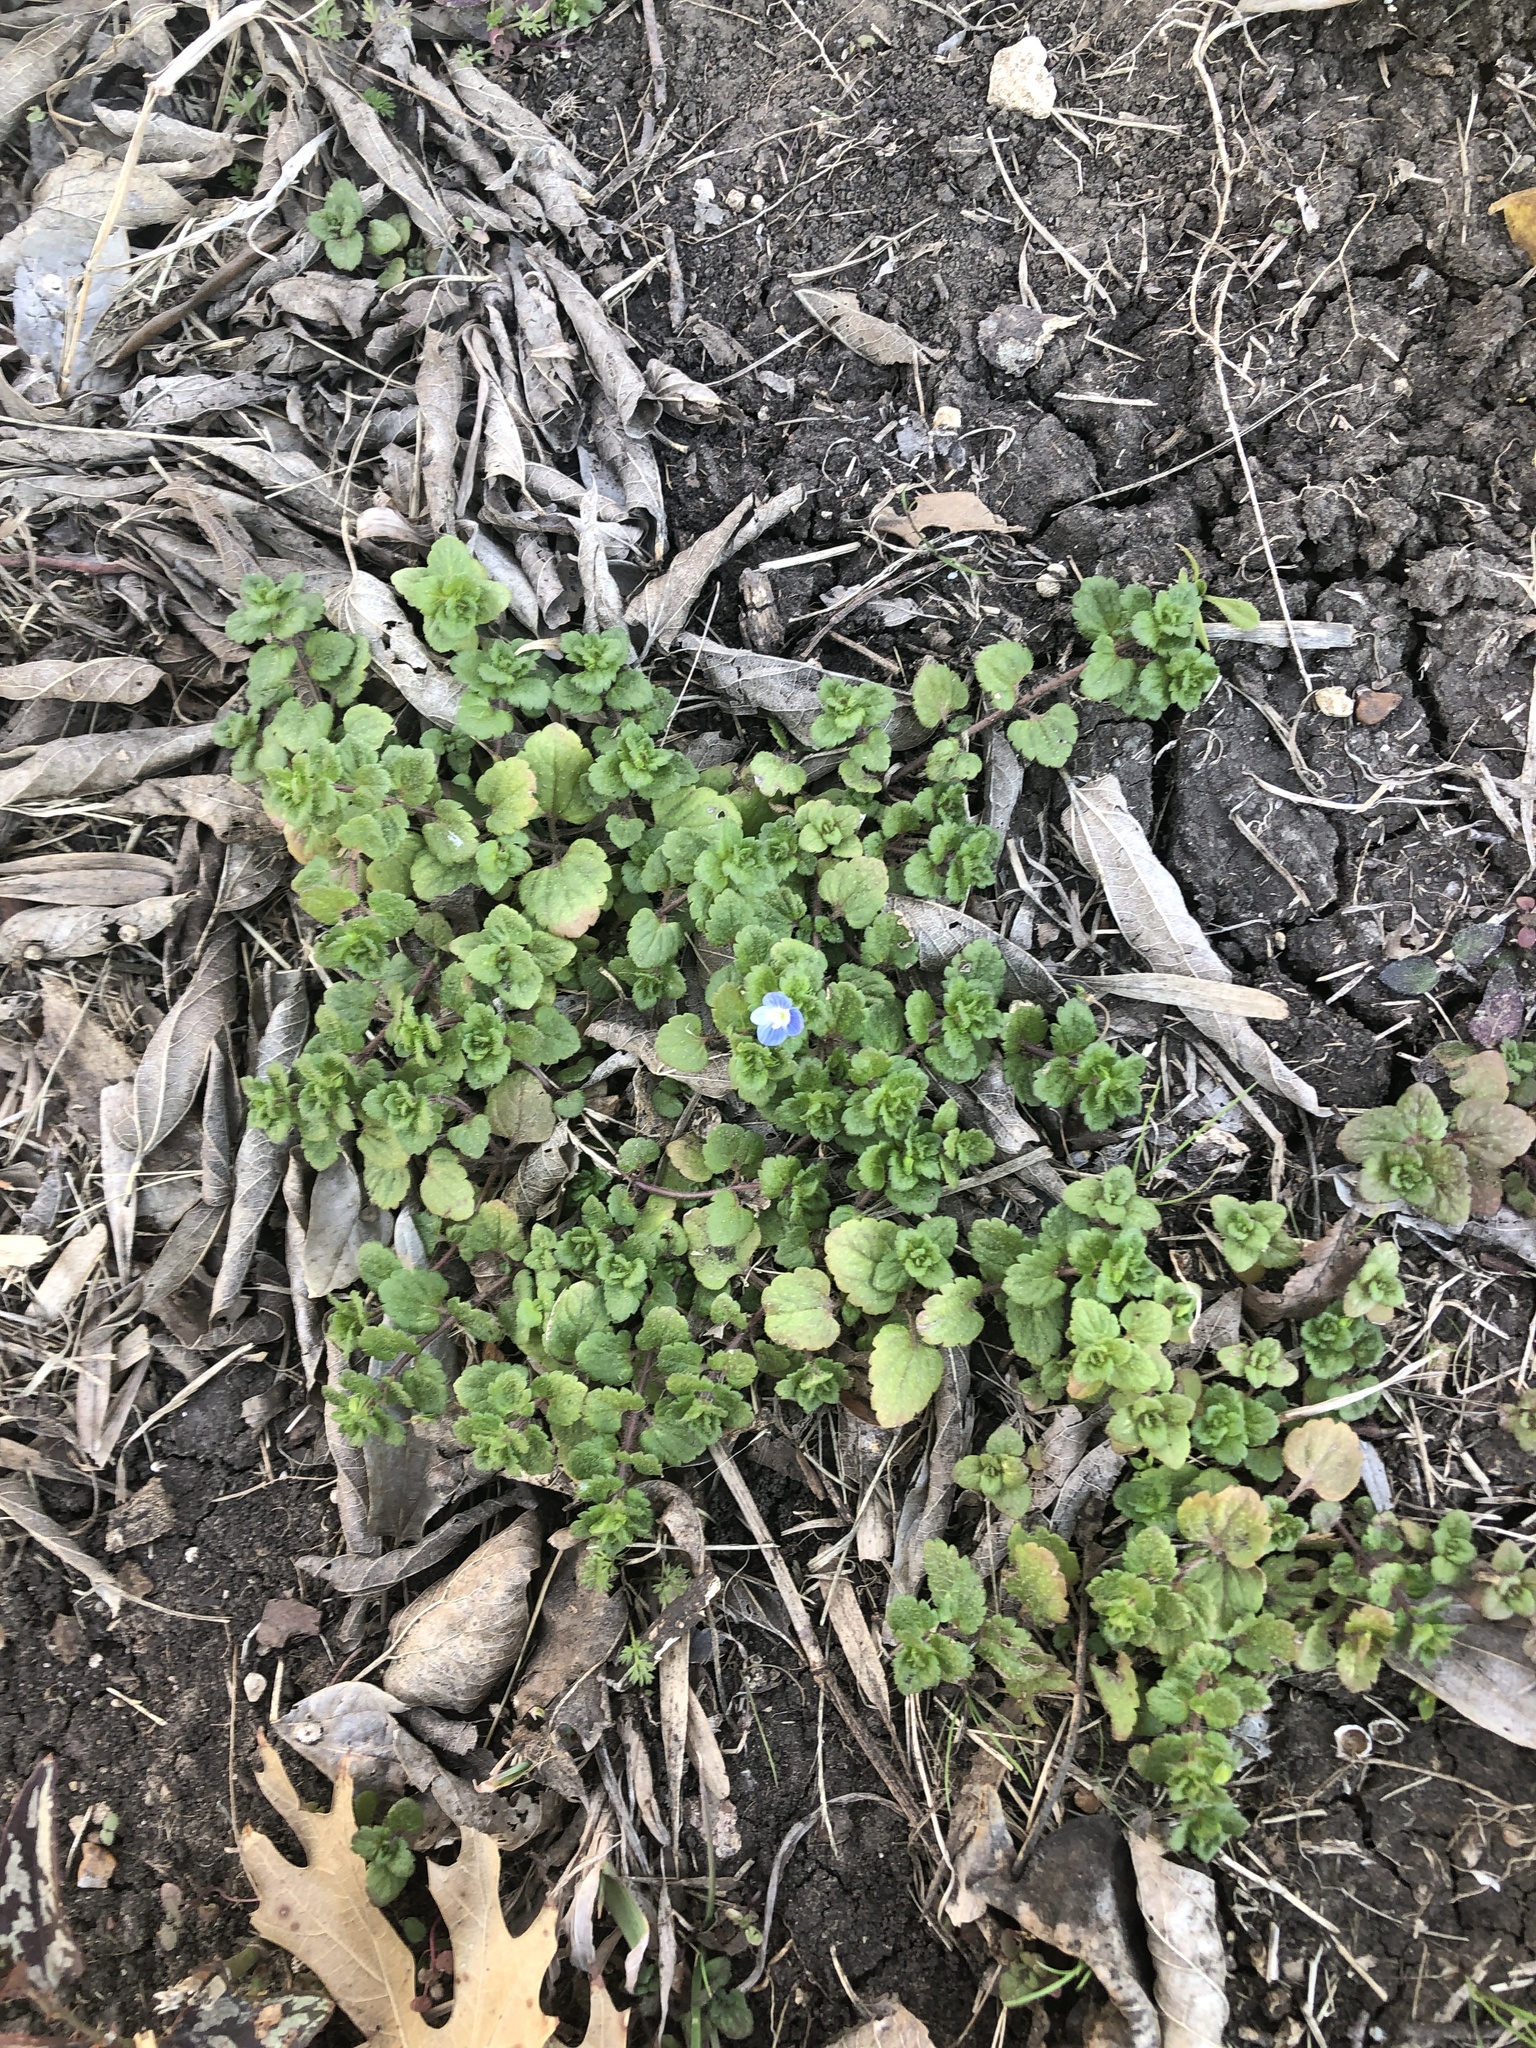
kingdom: Plantae
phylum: Tracheophyta
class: Magnoliopsida
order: Lamiales
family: Plantaginaceae
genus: Veronica
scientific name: Veronica persica
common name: Common field-speedwell
